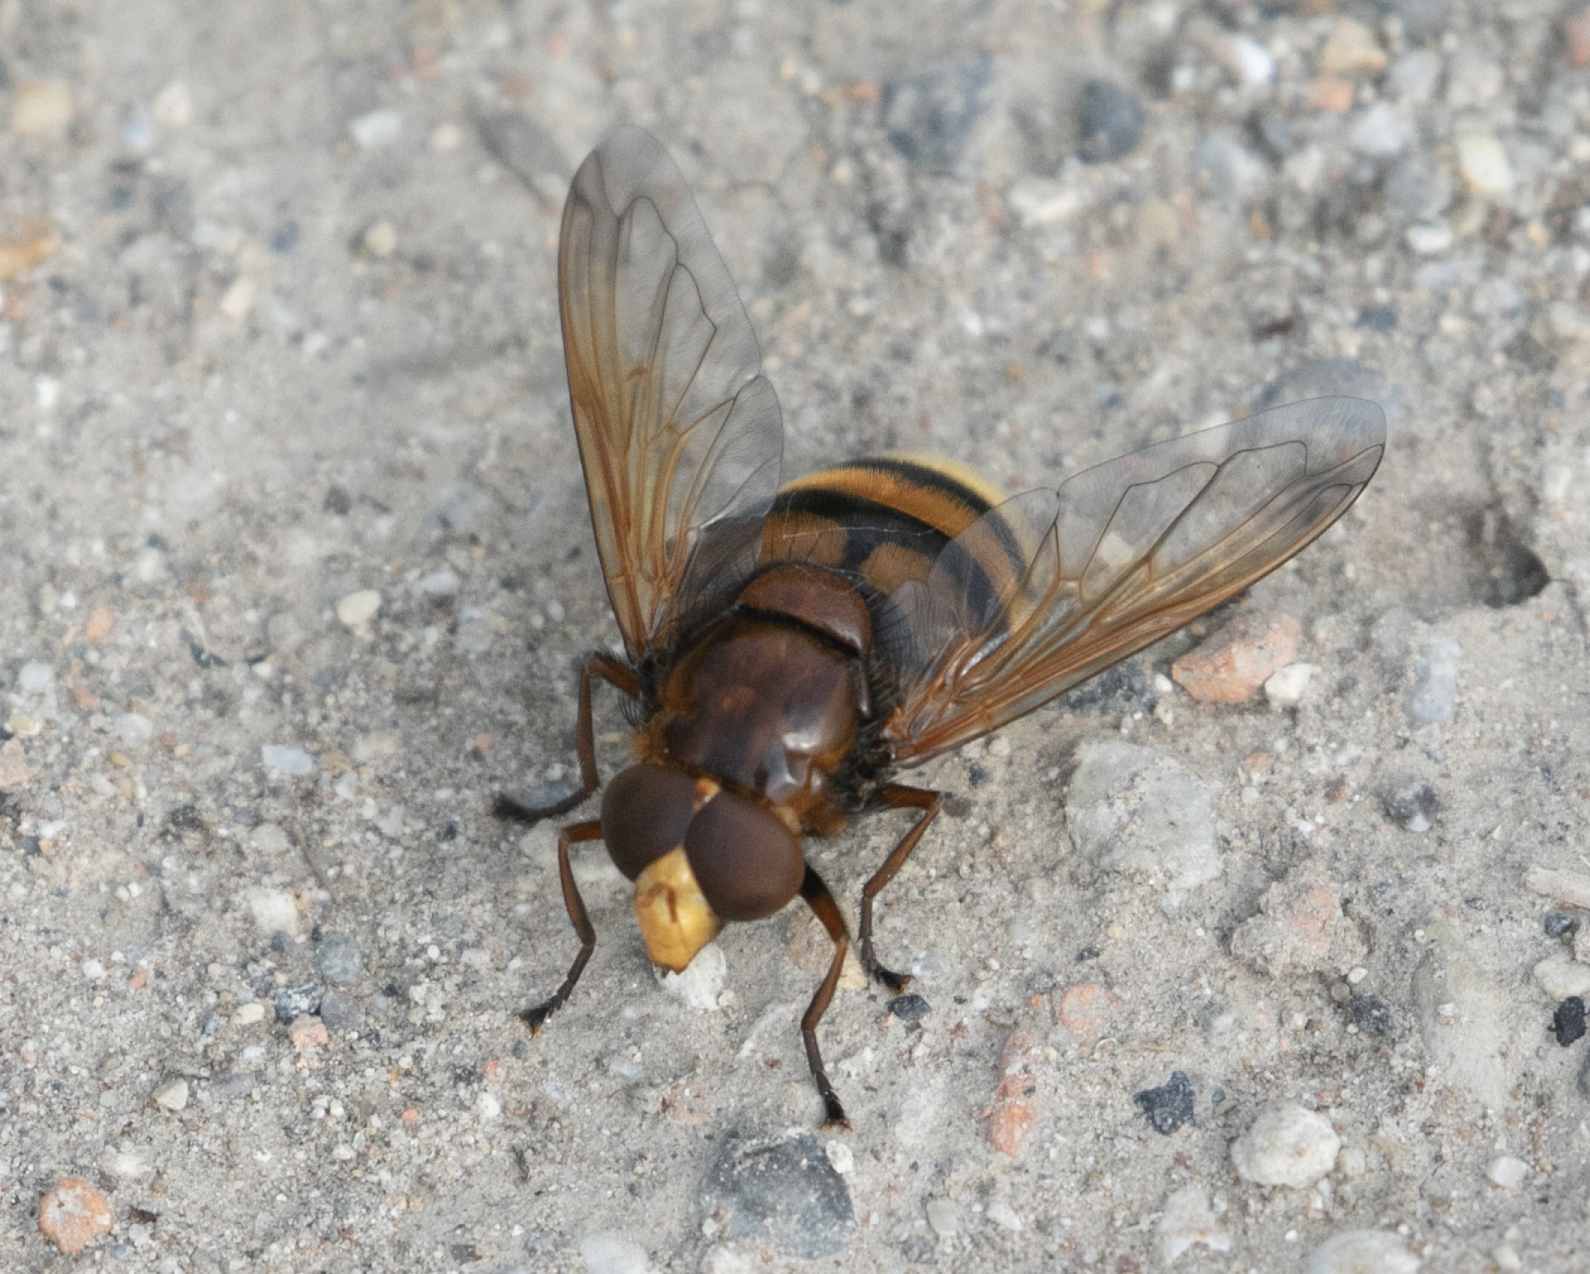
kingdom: Animalia
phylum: Arthropoda
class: Insecta
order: Diptera
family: Syrphidae
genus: Volucella
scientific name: Volucella zonaria
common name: Hornet hoverfly
